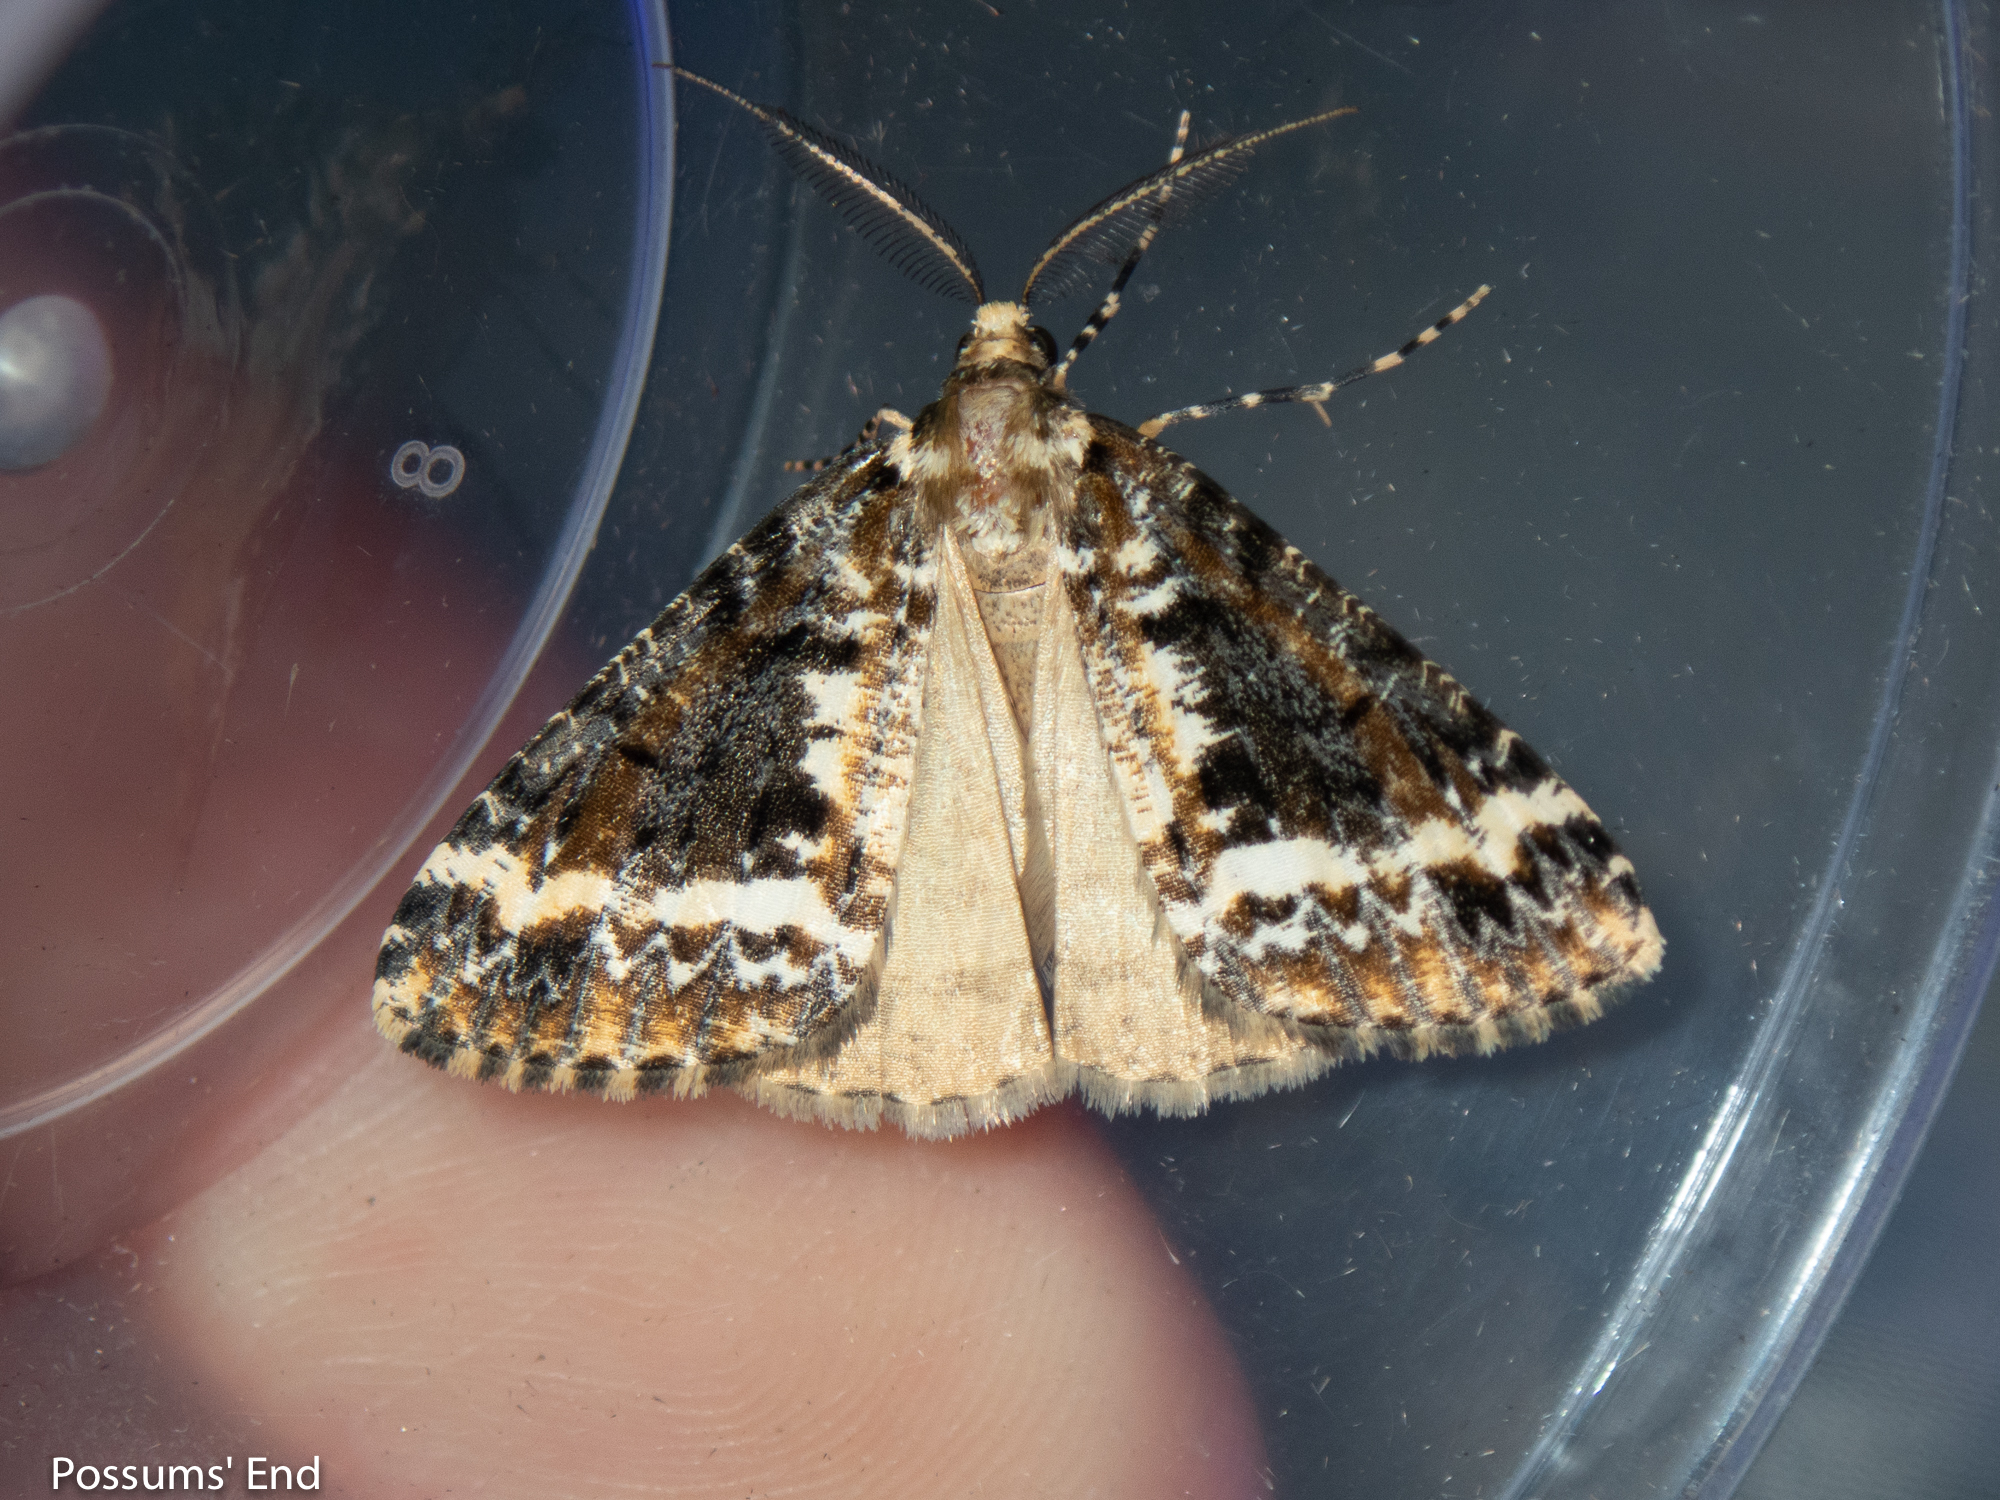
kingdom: Animalia
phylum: Arthropoda
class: Insecta
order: Lepidoptera
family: Geometridae
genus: Pseudocoremia
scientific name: Pseudocoremia leucelaea
